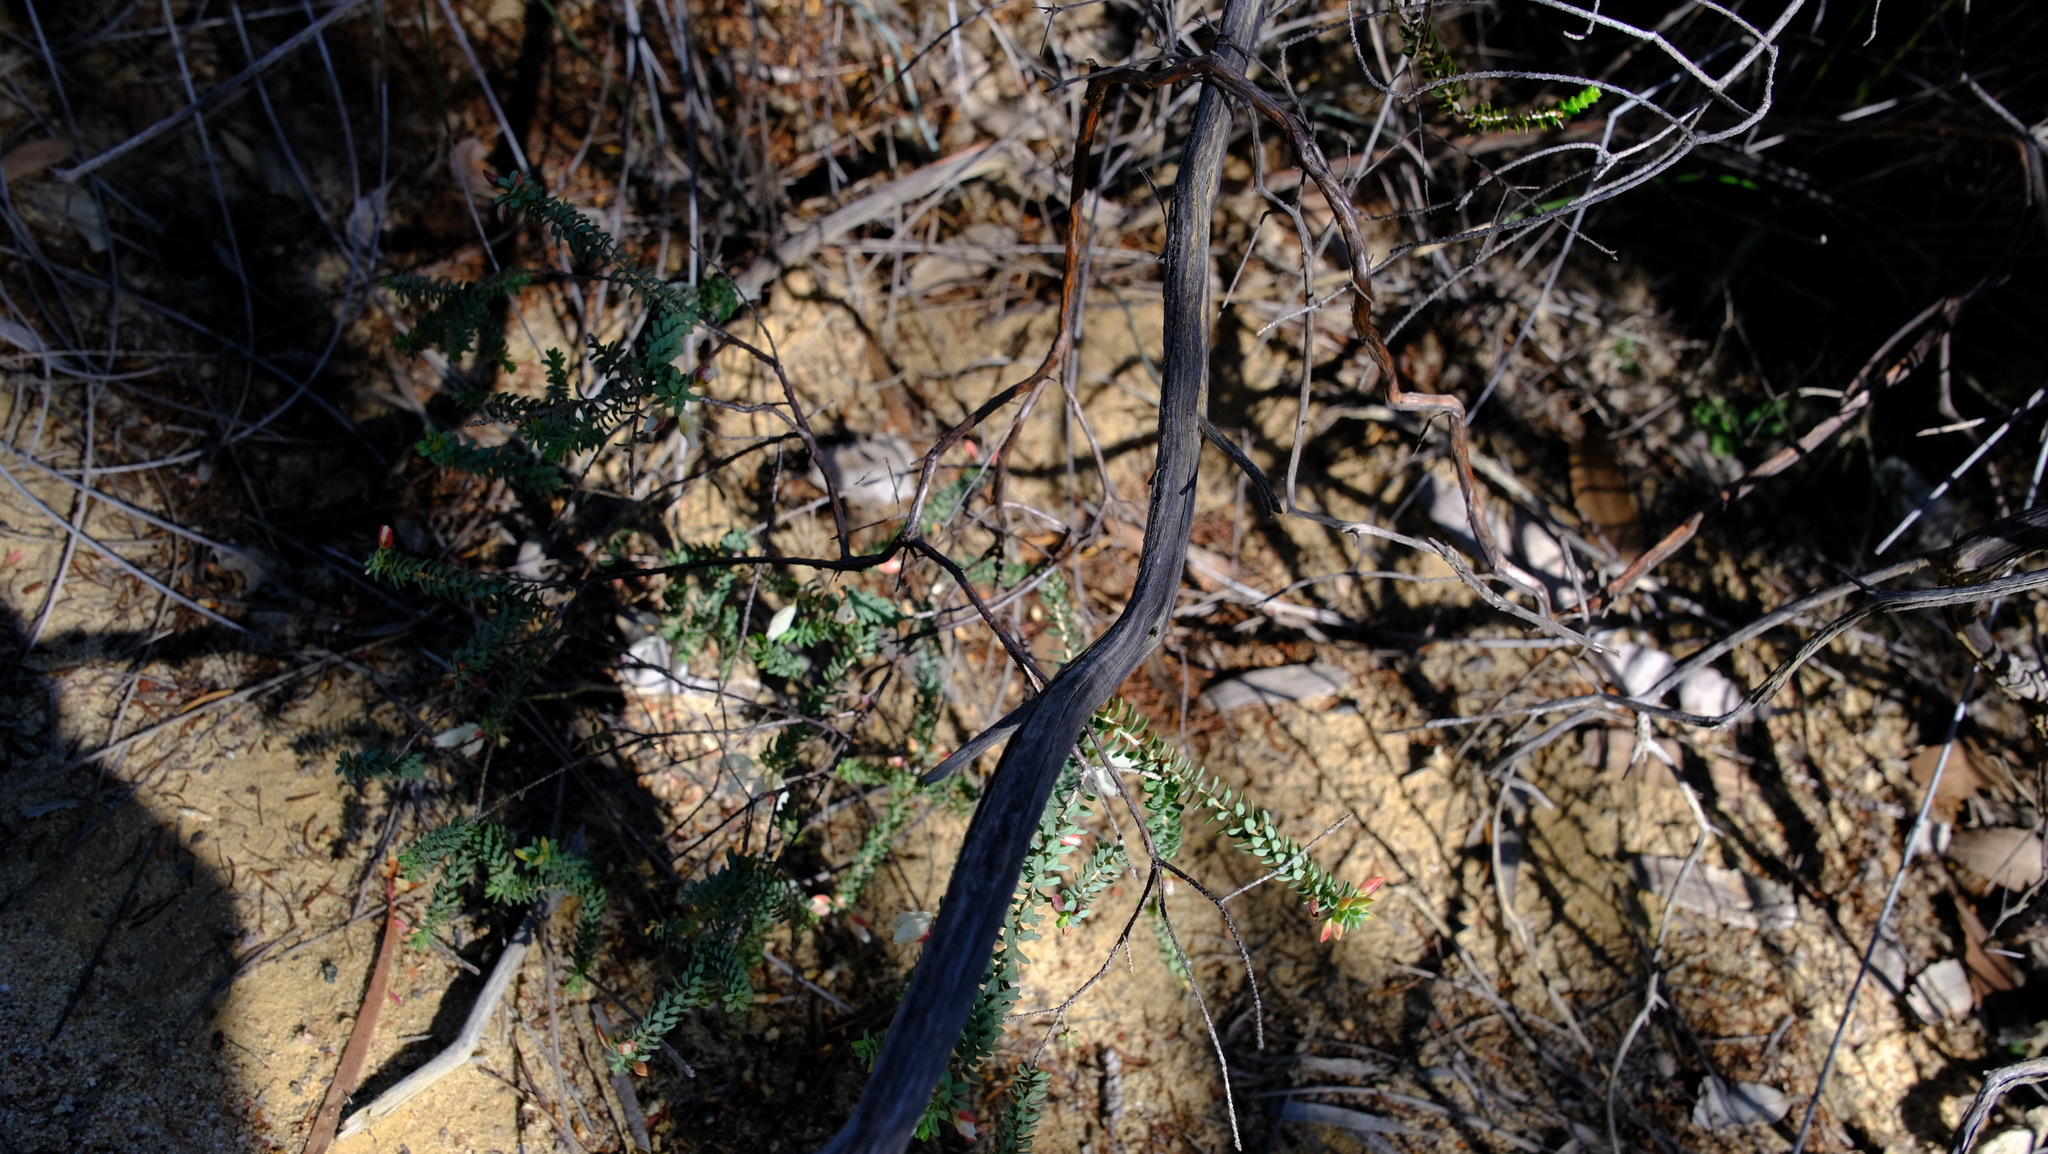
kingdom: Plantae
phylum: Tracheophyta
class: Magnoliopsida
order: Myrtales
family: Myrtaceae
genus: Darwinia
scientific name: Darwinia pauciflora
